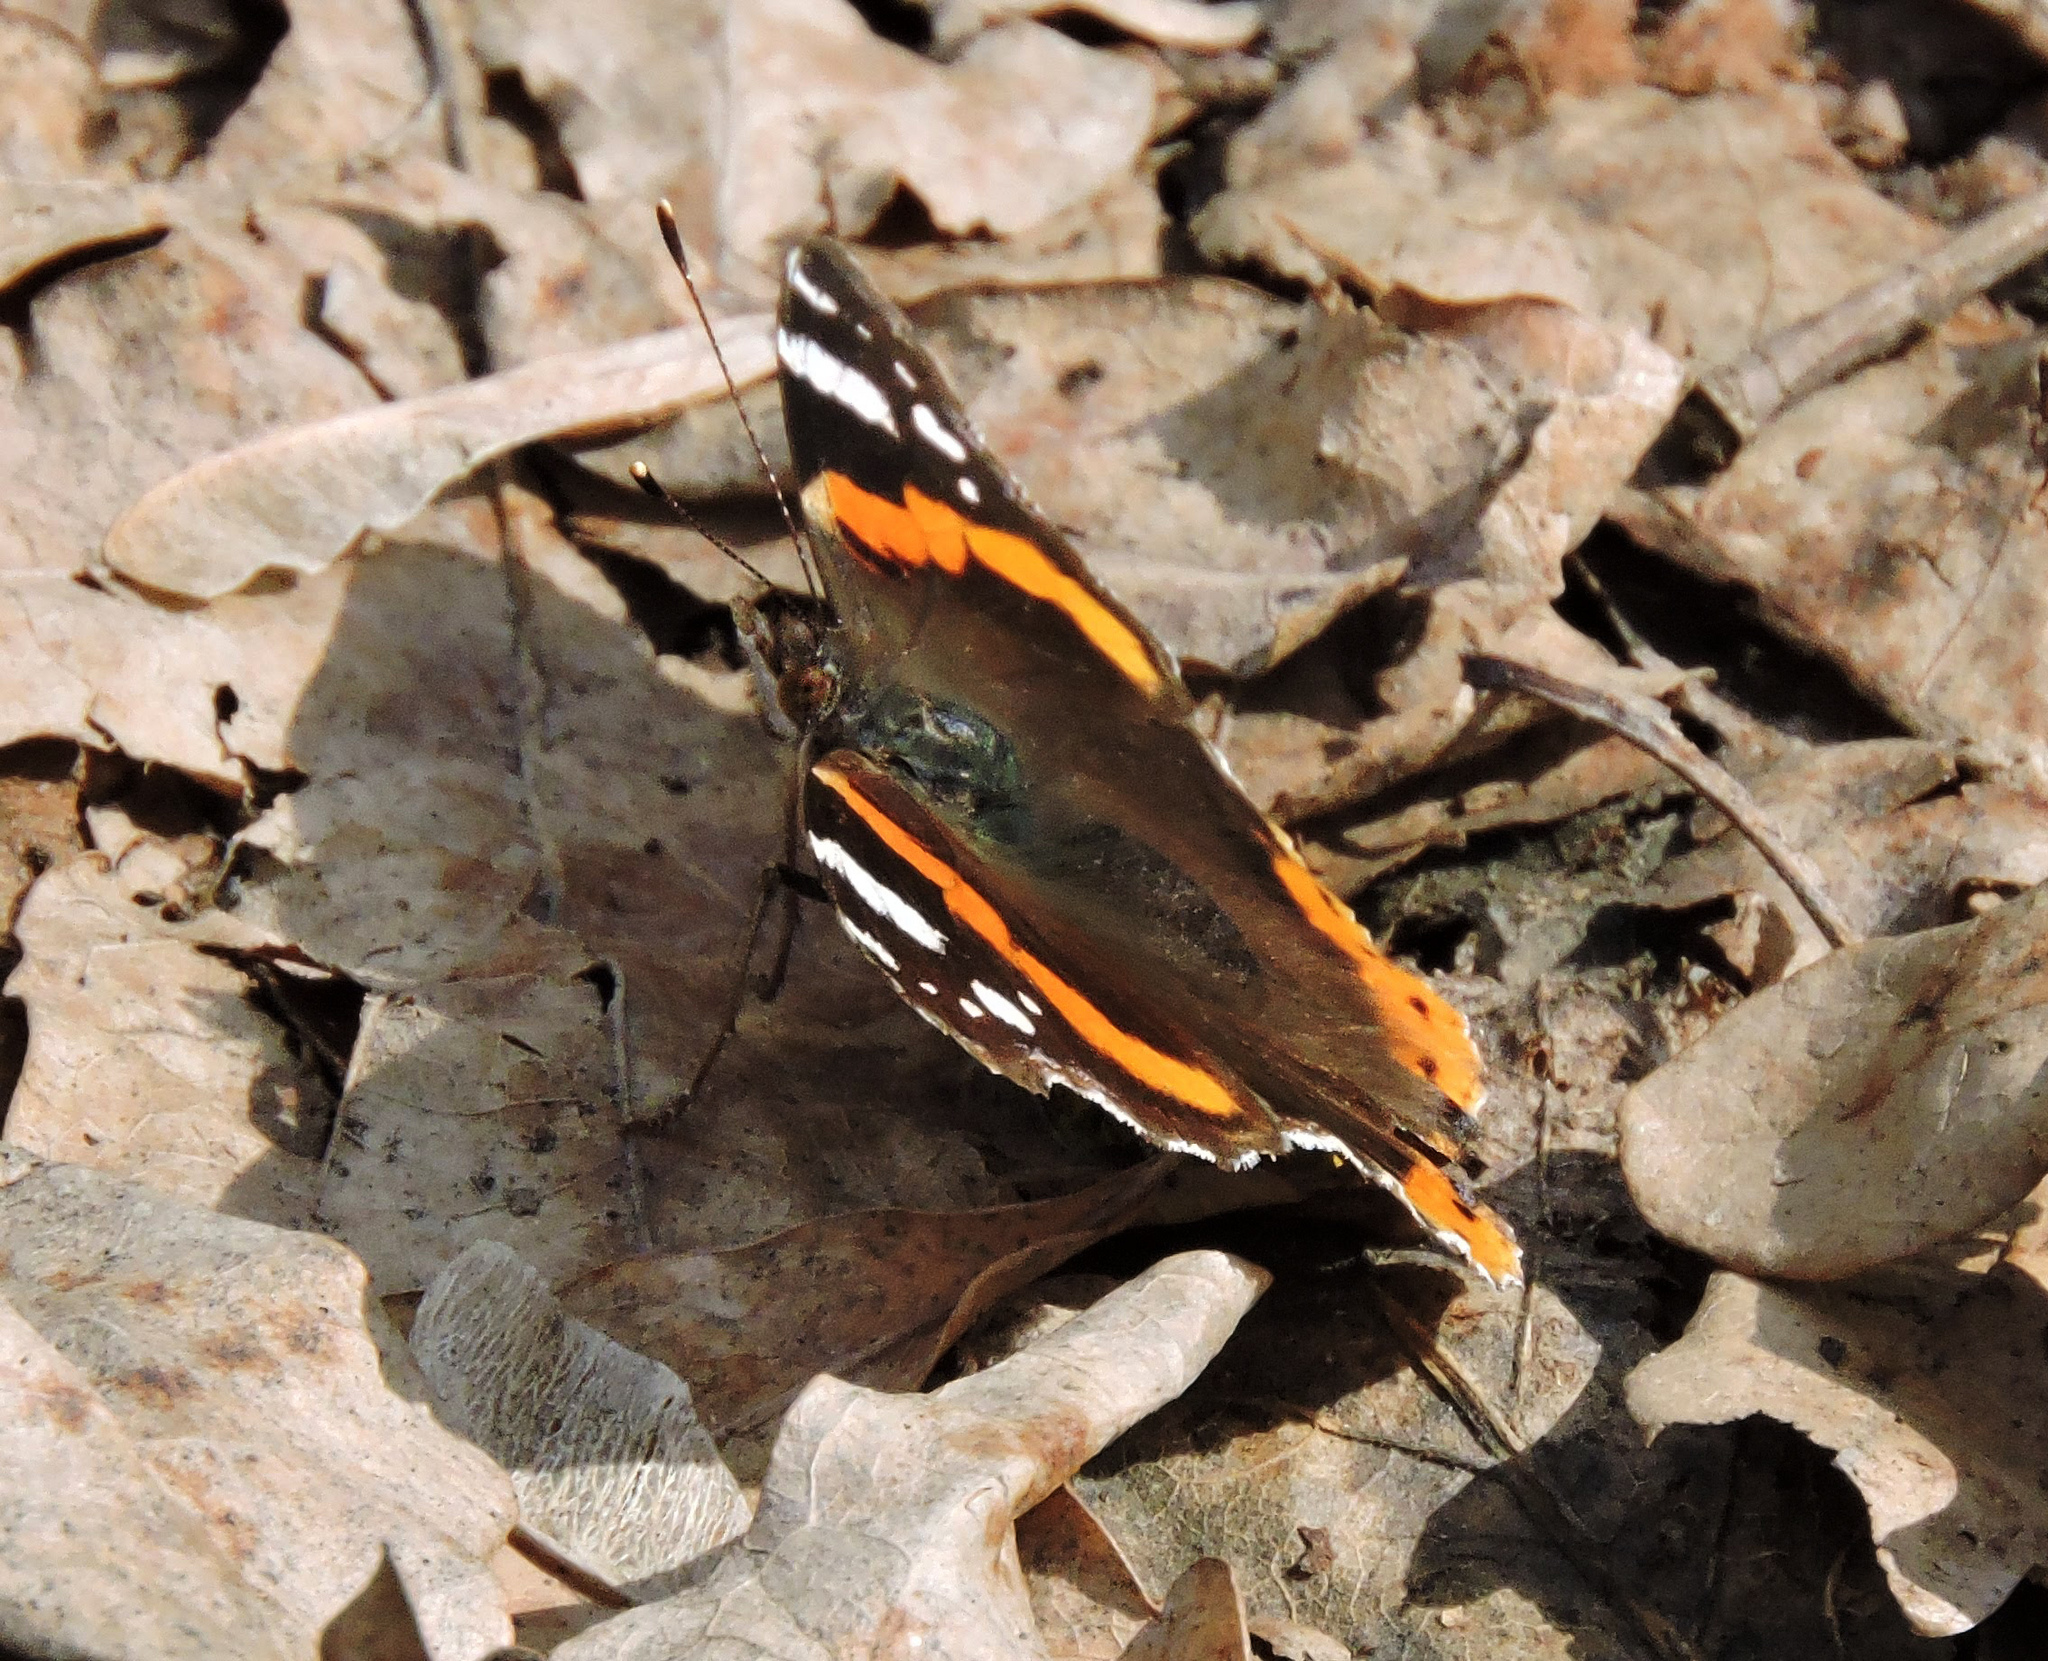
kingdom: Animalia
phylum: Arthropoda
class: Insecta
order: Lepidoptera
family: Nymphalidae
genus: Vanessa
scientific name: Vanessa atalanta
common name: Red admiral
